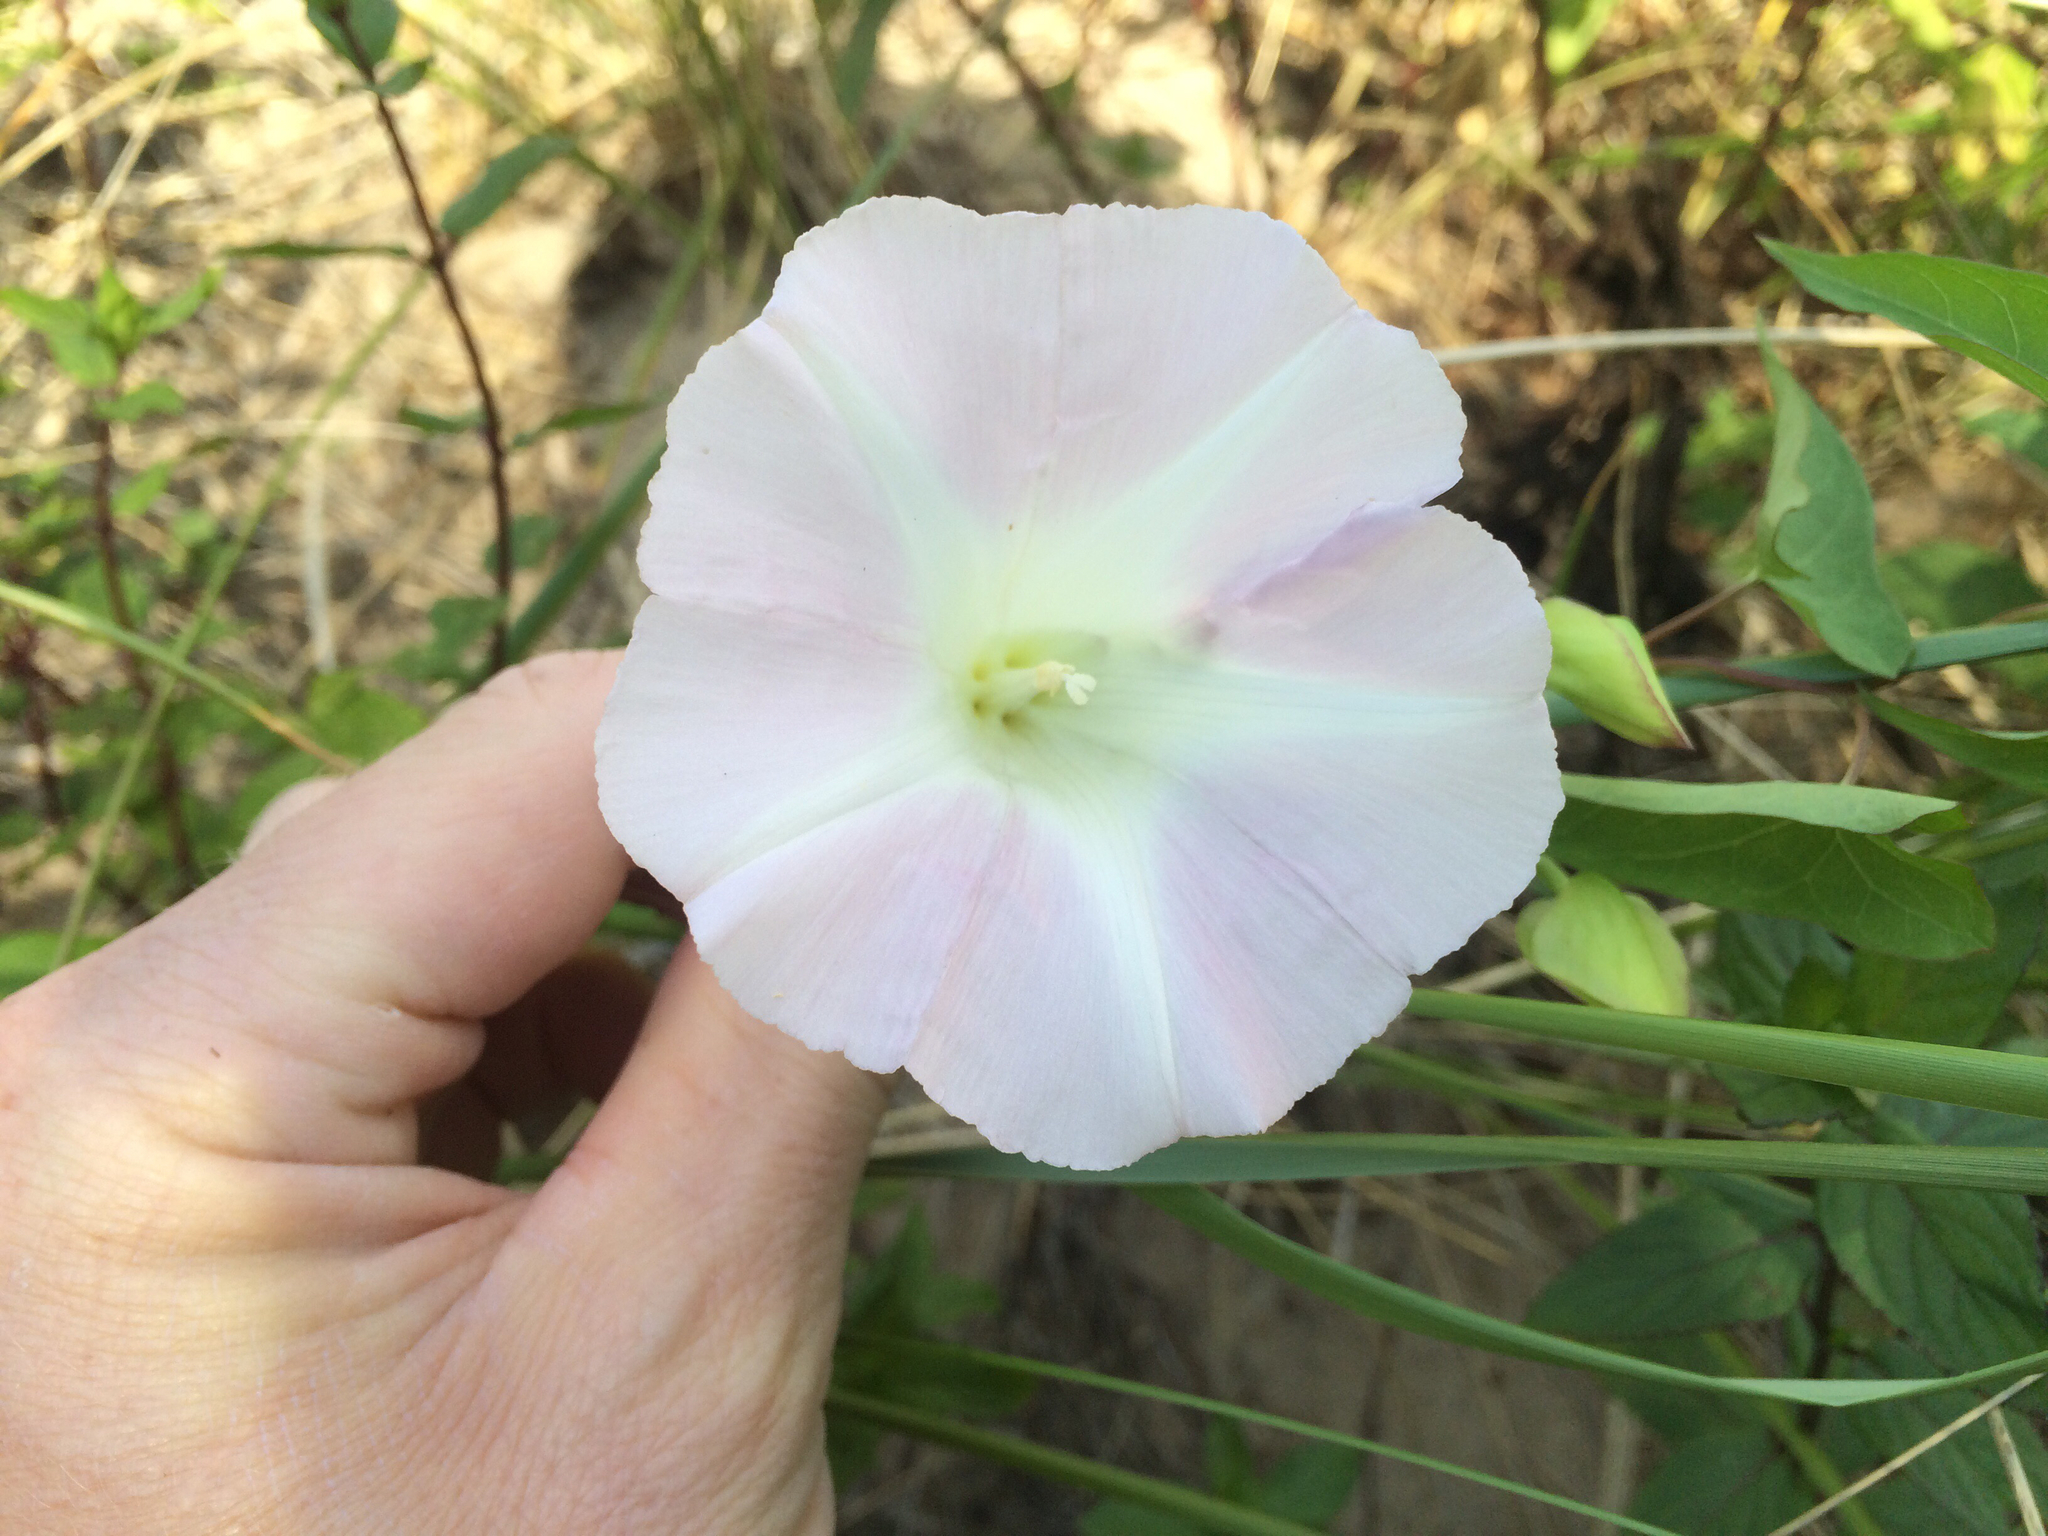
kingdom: Plantae
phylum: Tracheophyta
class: Magnoliopsida
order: Solanales
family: Convolvulaceae
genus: Calystegia
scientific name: Calystegia sepium
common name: Hedge bindweed
